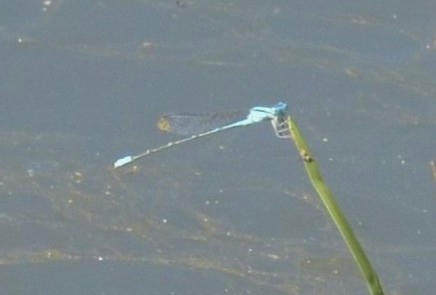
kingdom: Animalia
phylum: Arthropoda
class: Insecta
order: Odonata
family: Coenagrionidae
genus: Pseudagrion
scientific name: Pseudagrion microcephalum
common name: Blue riverdamsel
